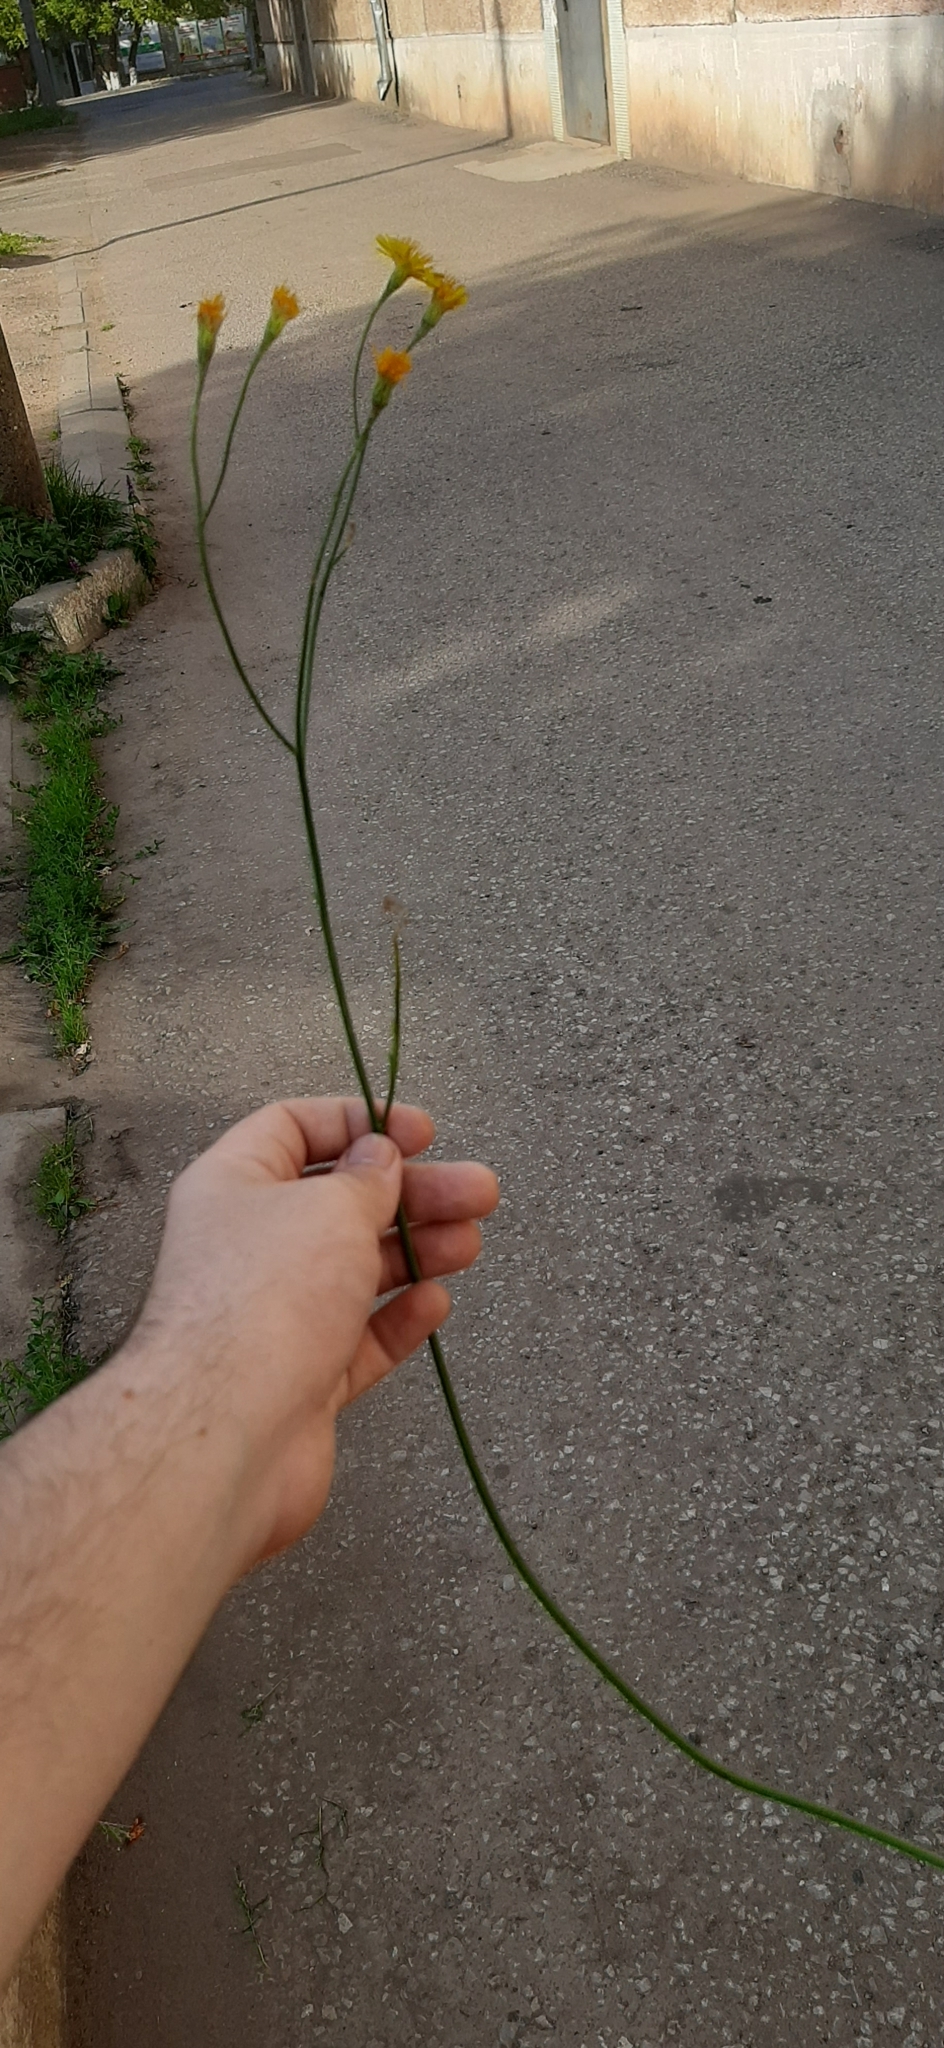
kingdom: Plantae
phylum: Tracheophyta
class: Magnoliopsida
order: Asterales
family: Asteraceae
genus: Scorzoneroides
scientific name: Scorzoneroides autumnalis
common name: Autumn hawkbit
